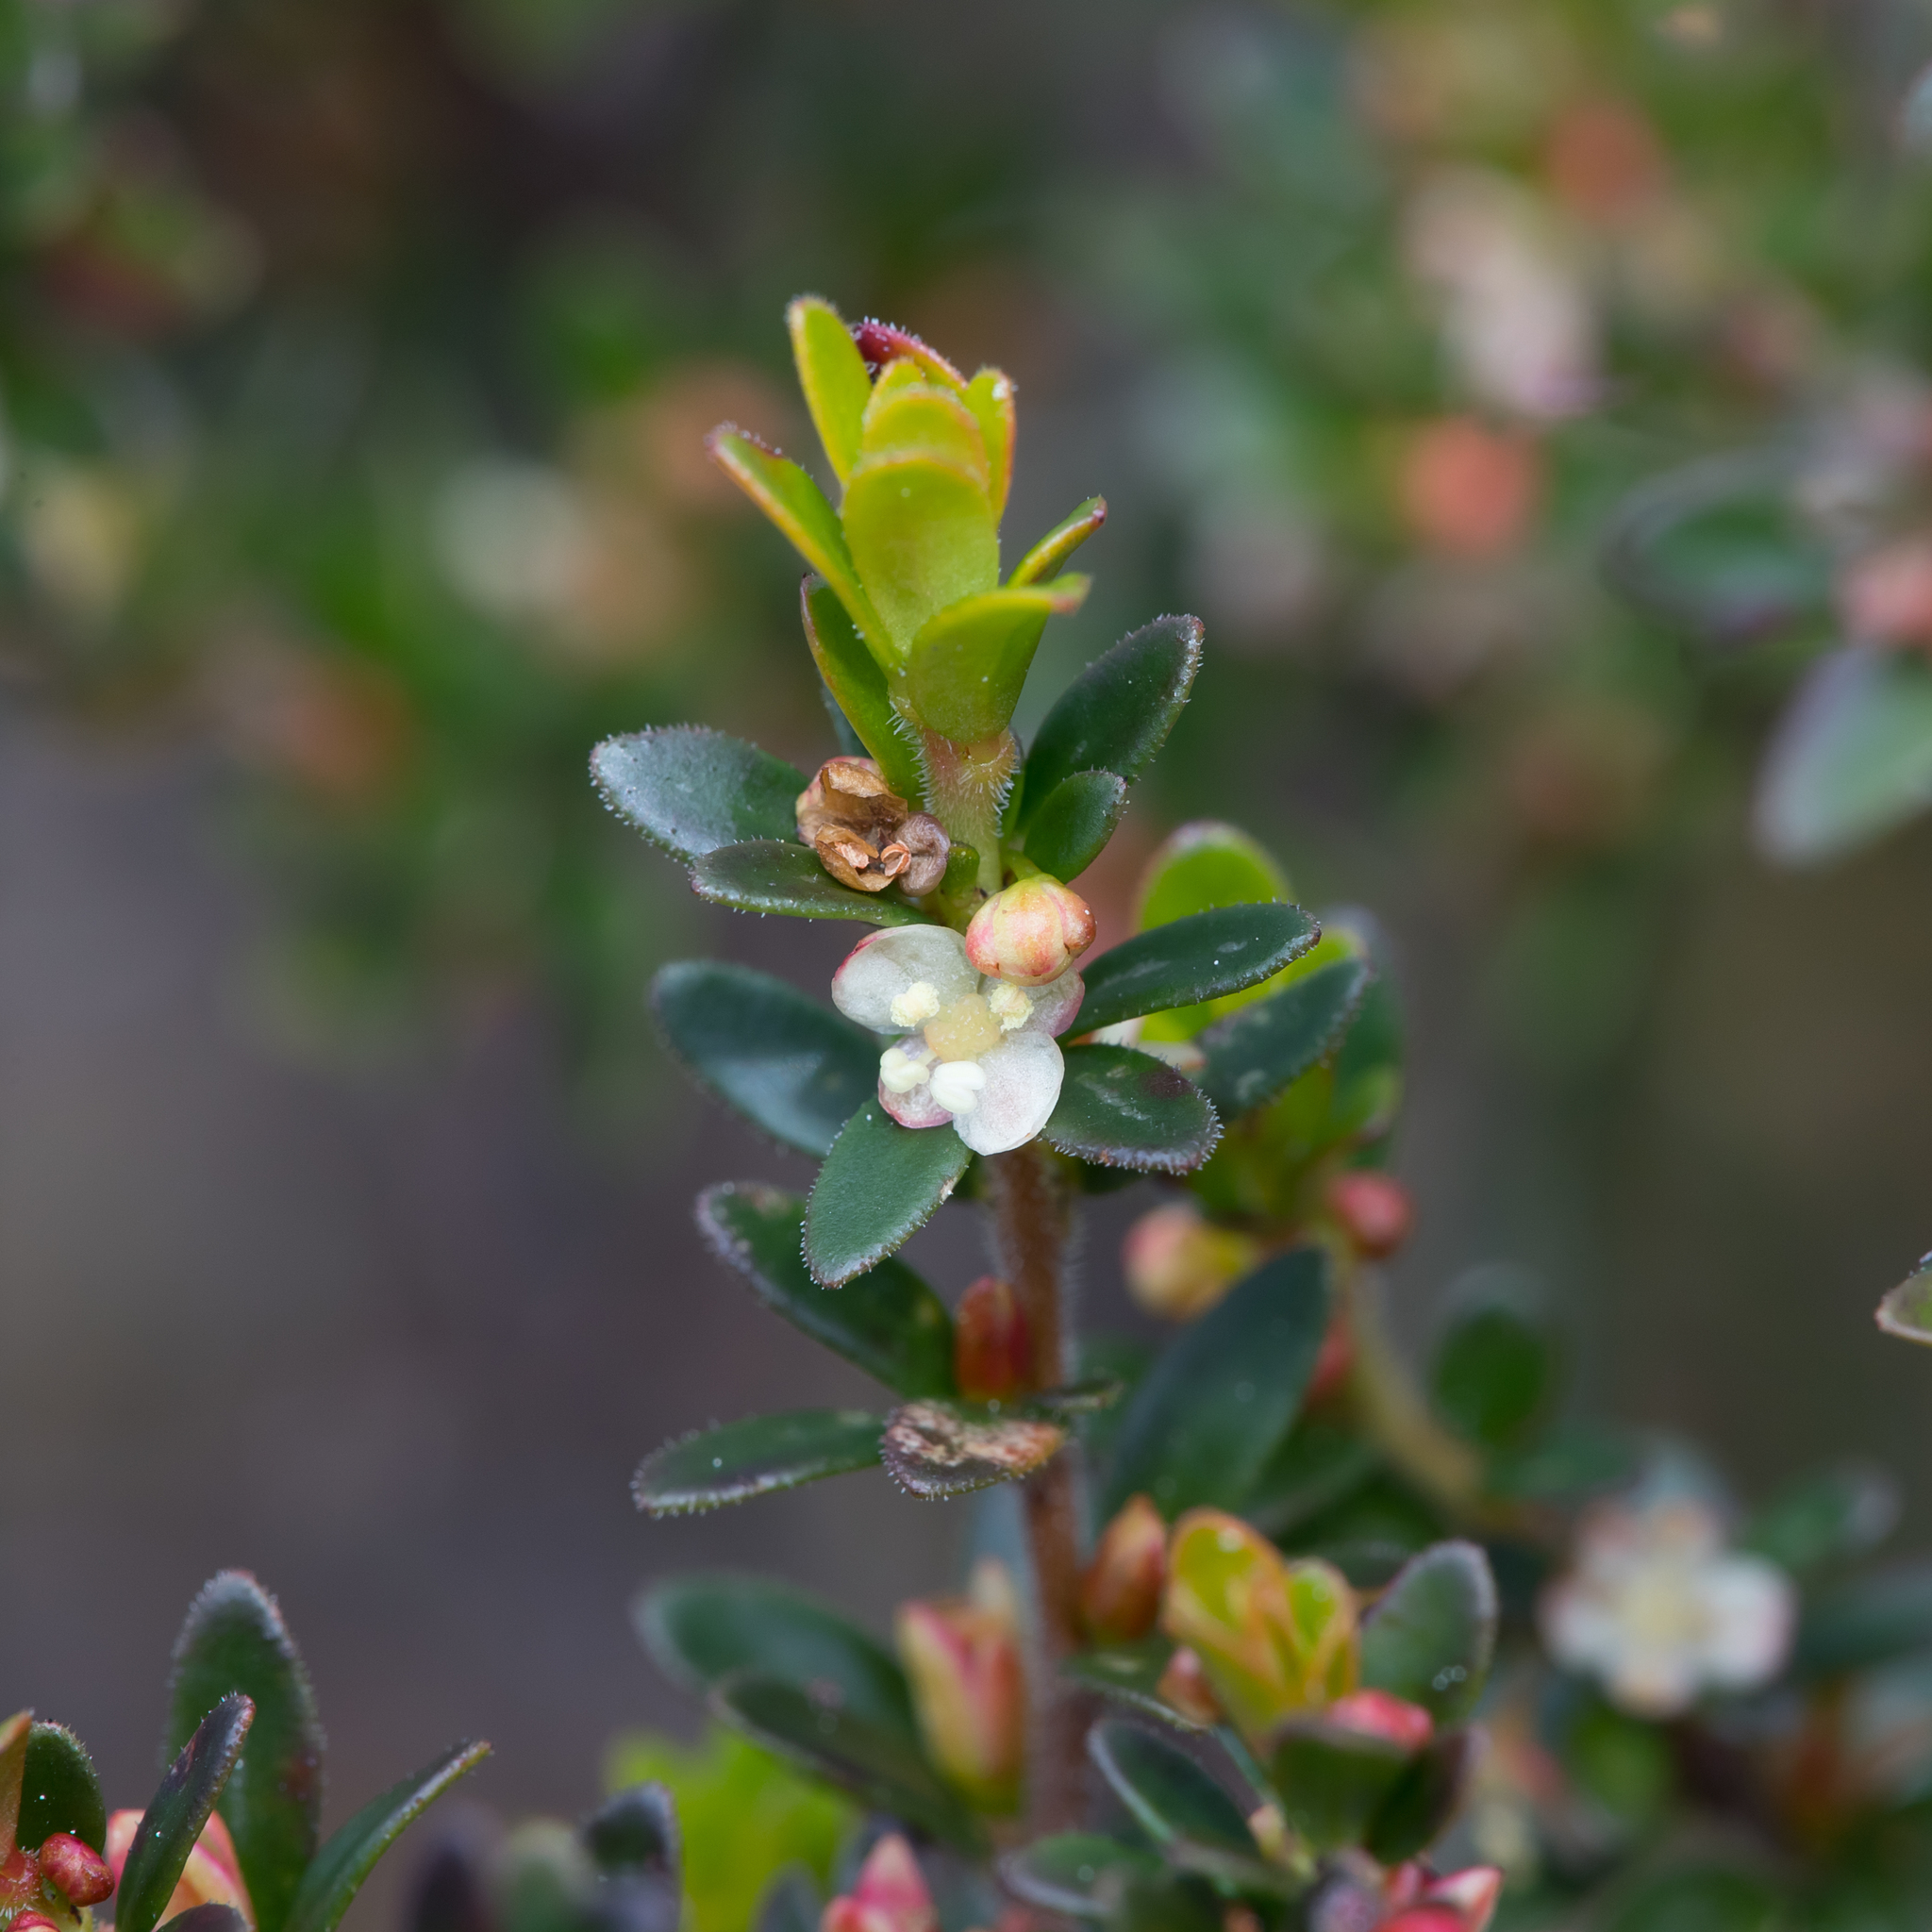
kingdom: Plantae
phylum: Tracheophyta
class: Magnoliopsida
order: Malpighiales
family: Picrodendraceae
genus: Micrantheum
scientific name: Micrantheum demissum
